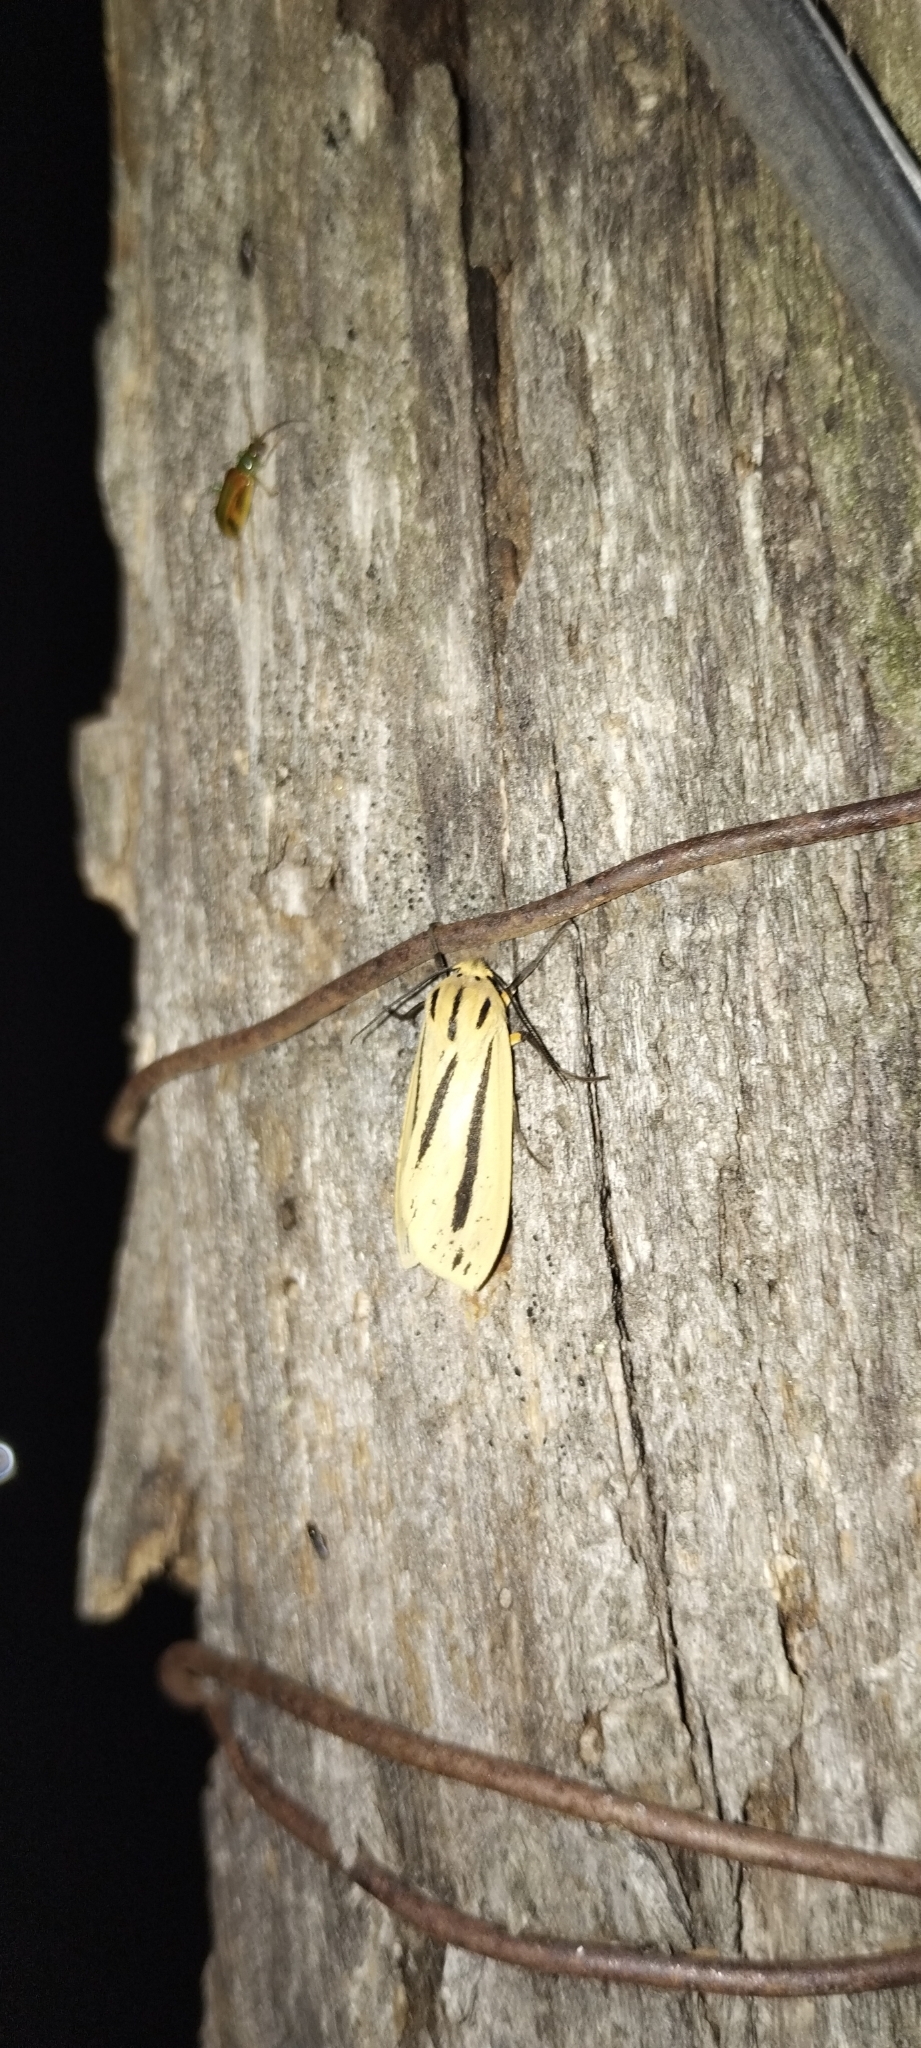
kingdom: Animalia
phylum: Arthropoda
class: Insecta
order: Lepidoptera
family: Erebidae
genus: Leucanopsis
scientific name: Leucanopsis orooca
